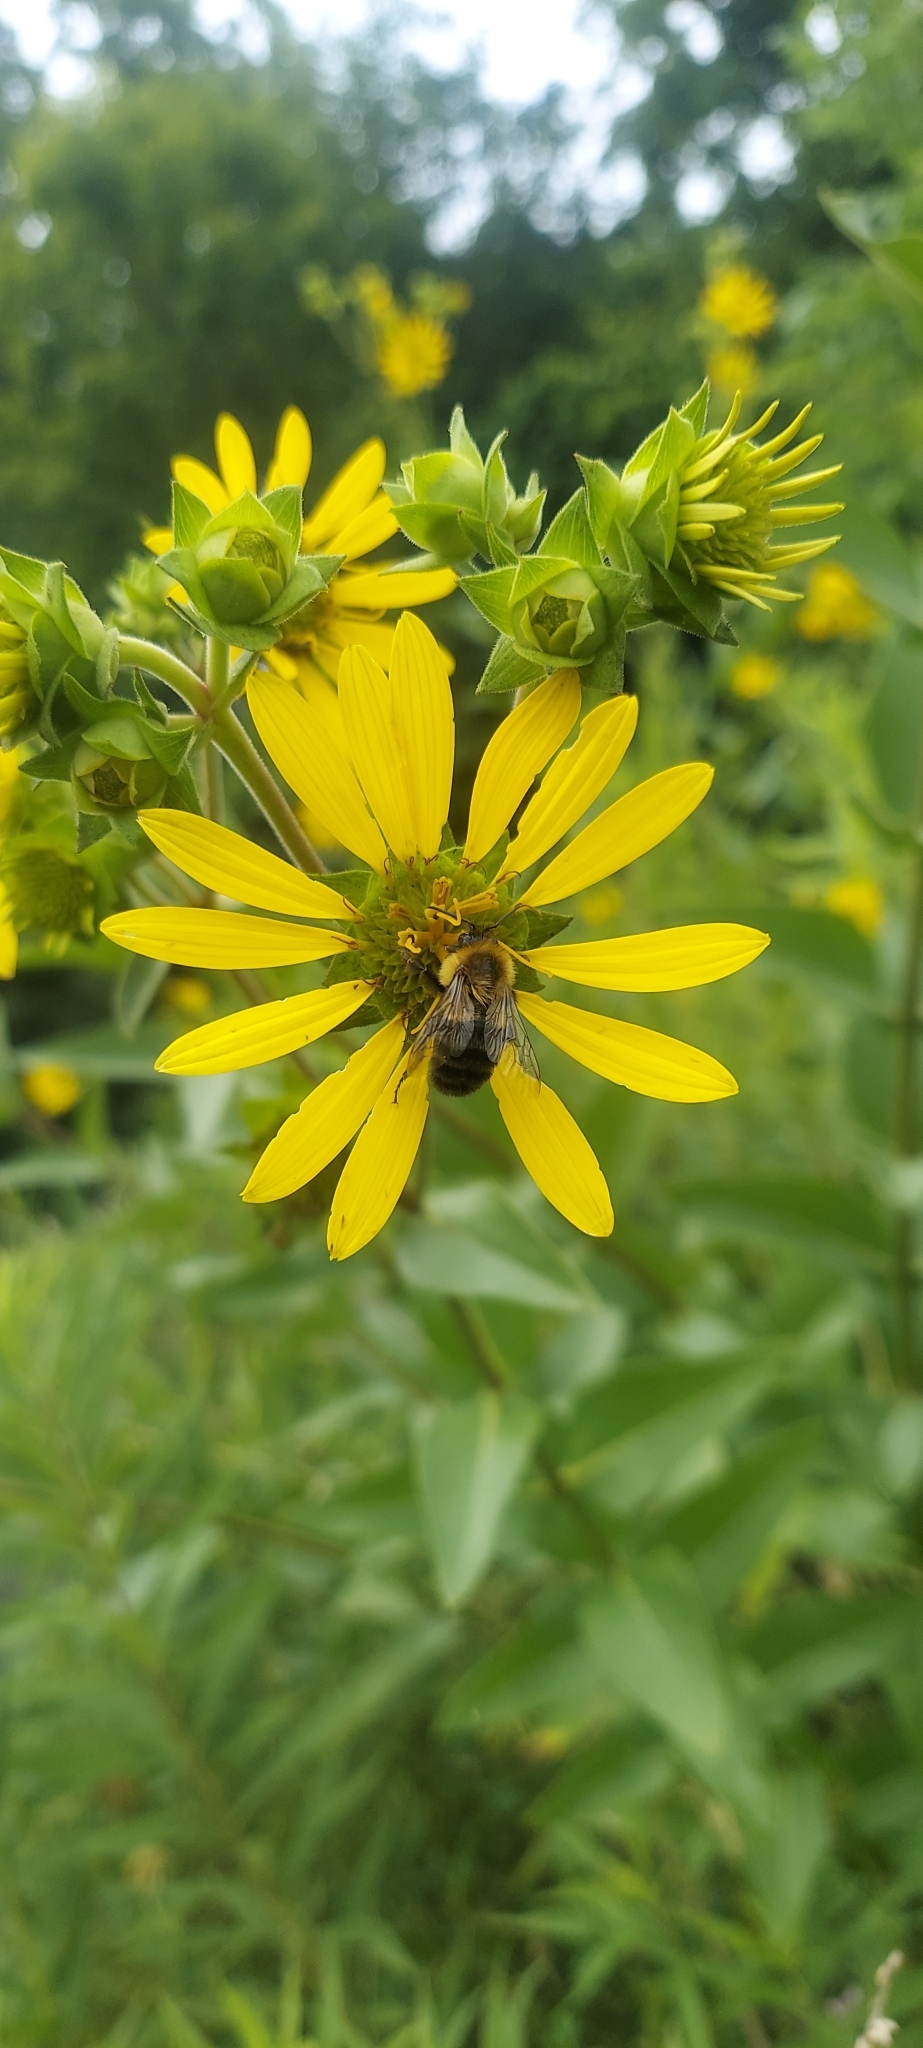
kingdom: Animalia
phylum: Arthropoda
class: Insecta
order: Hymenoptera
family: Apidae
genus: Bombus
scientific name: Bombus impatiens
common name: Common eastern bumble bee
